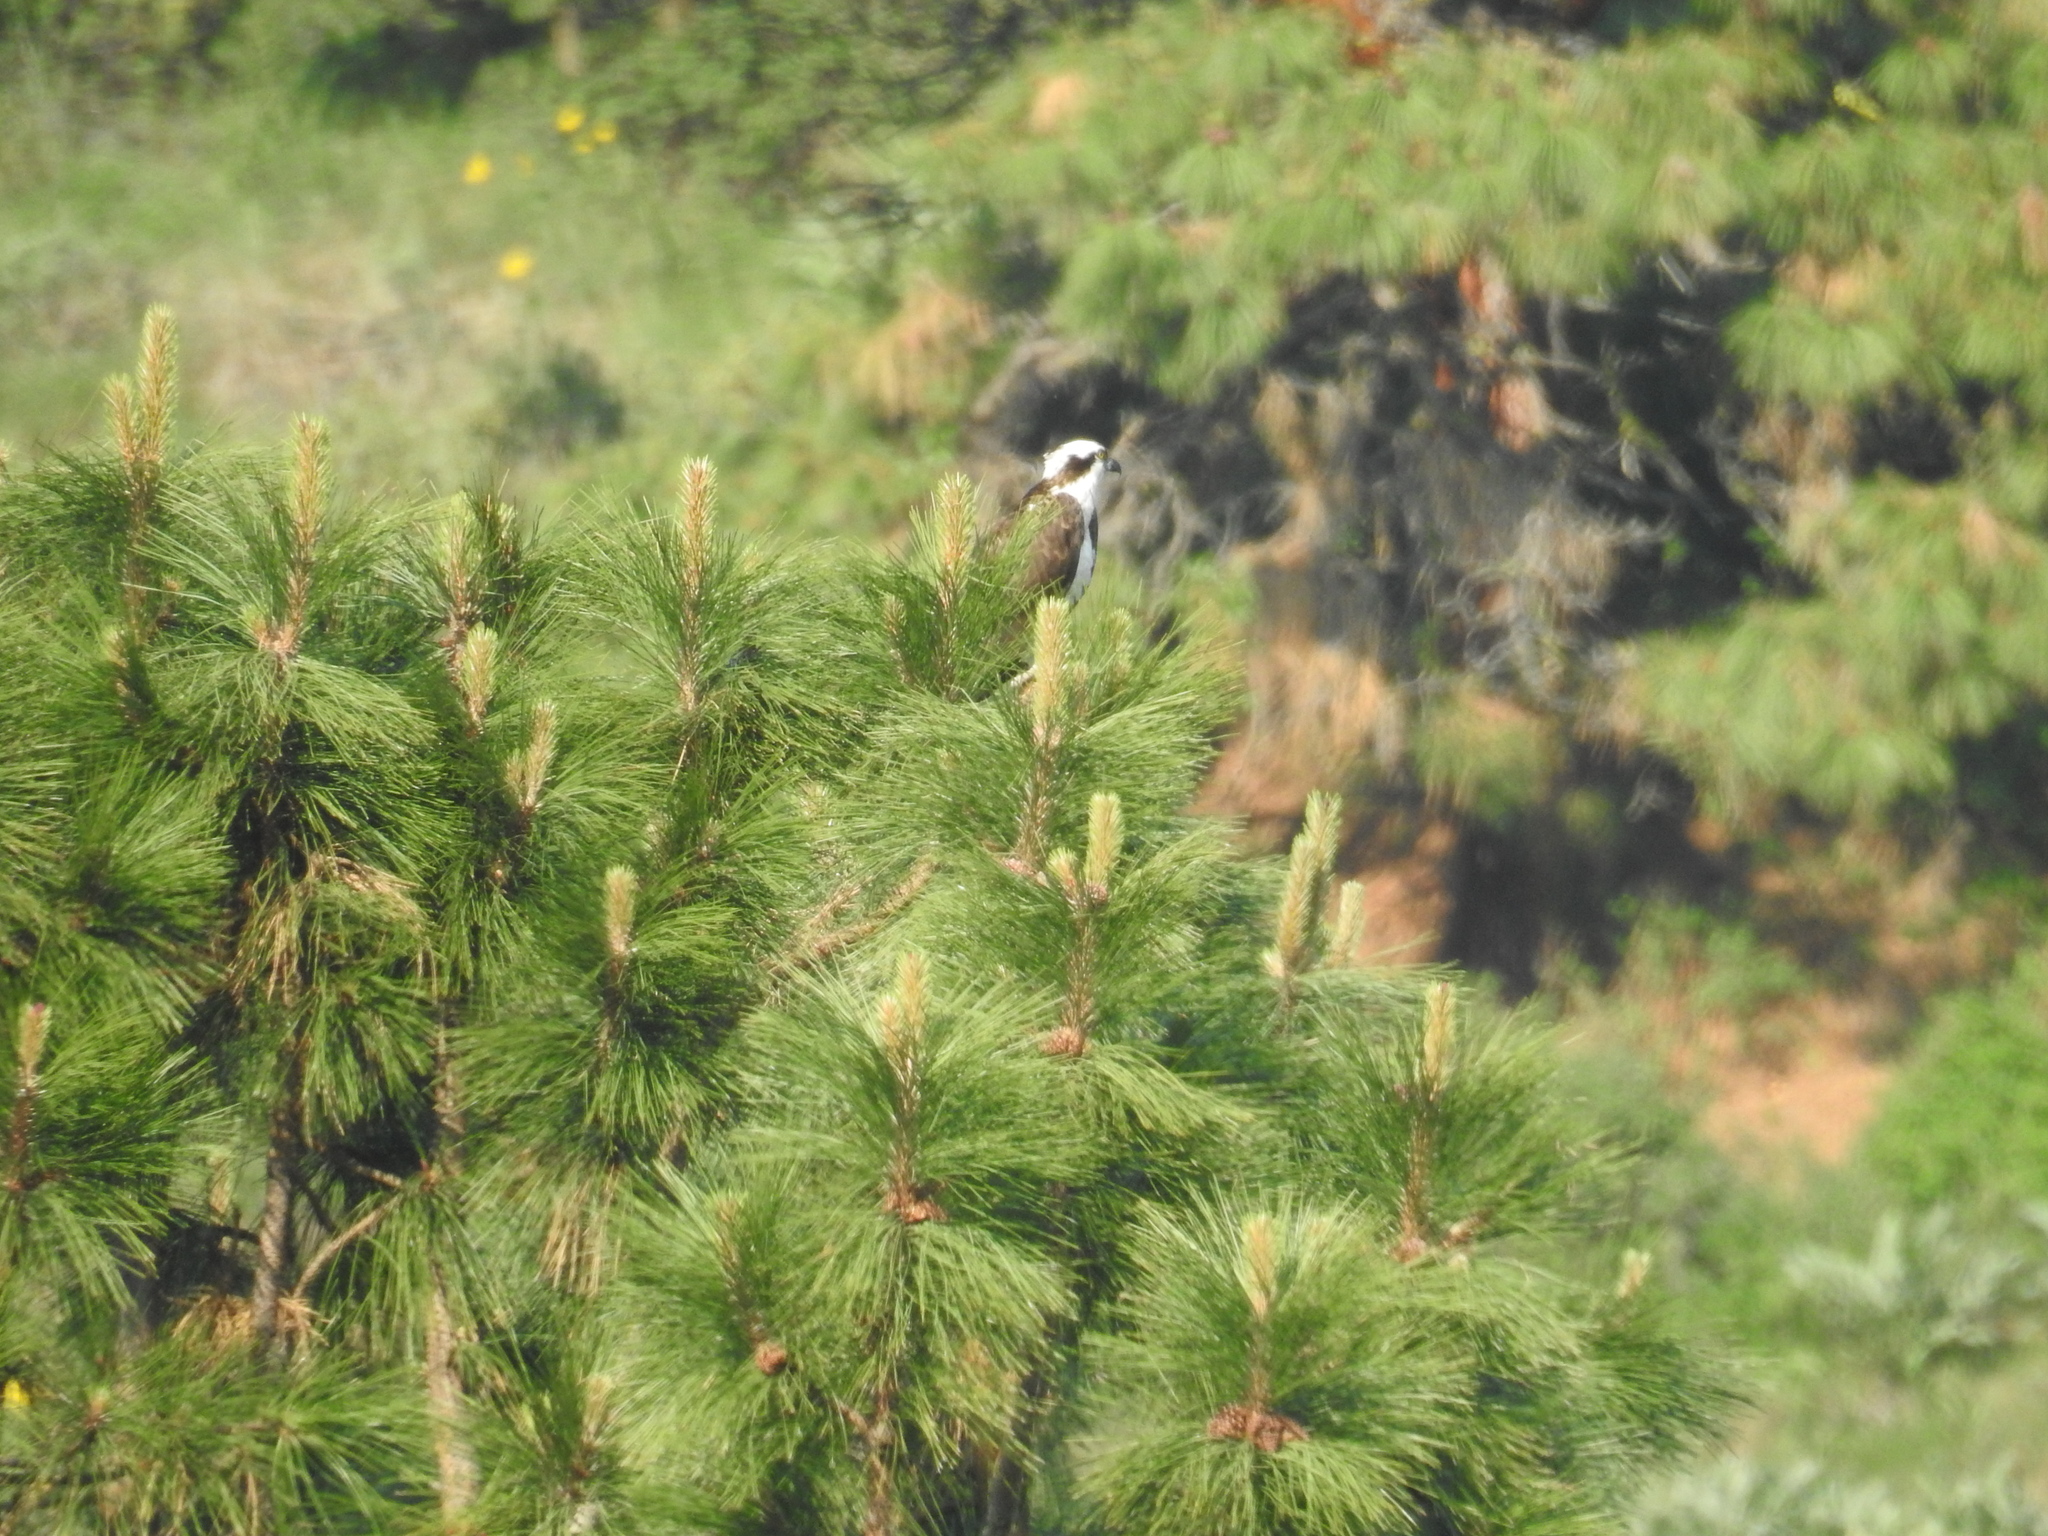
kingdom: Animalia
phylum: Chordata
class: Aves
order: Accipitriformes
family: Pandionidae
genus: Pandion
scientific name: Pandion haliaetus
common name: Osprey
